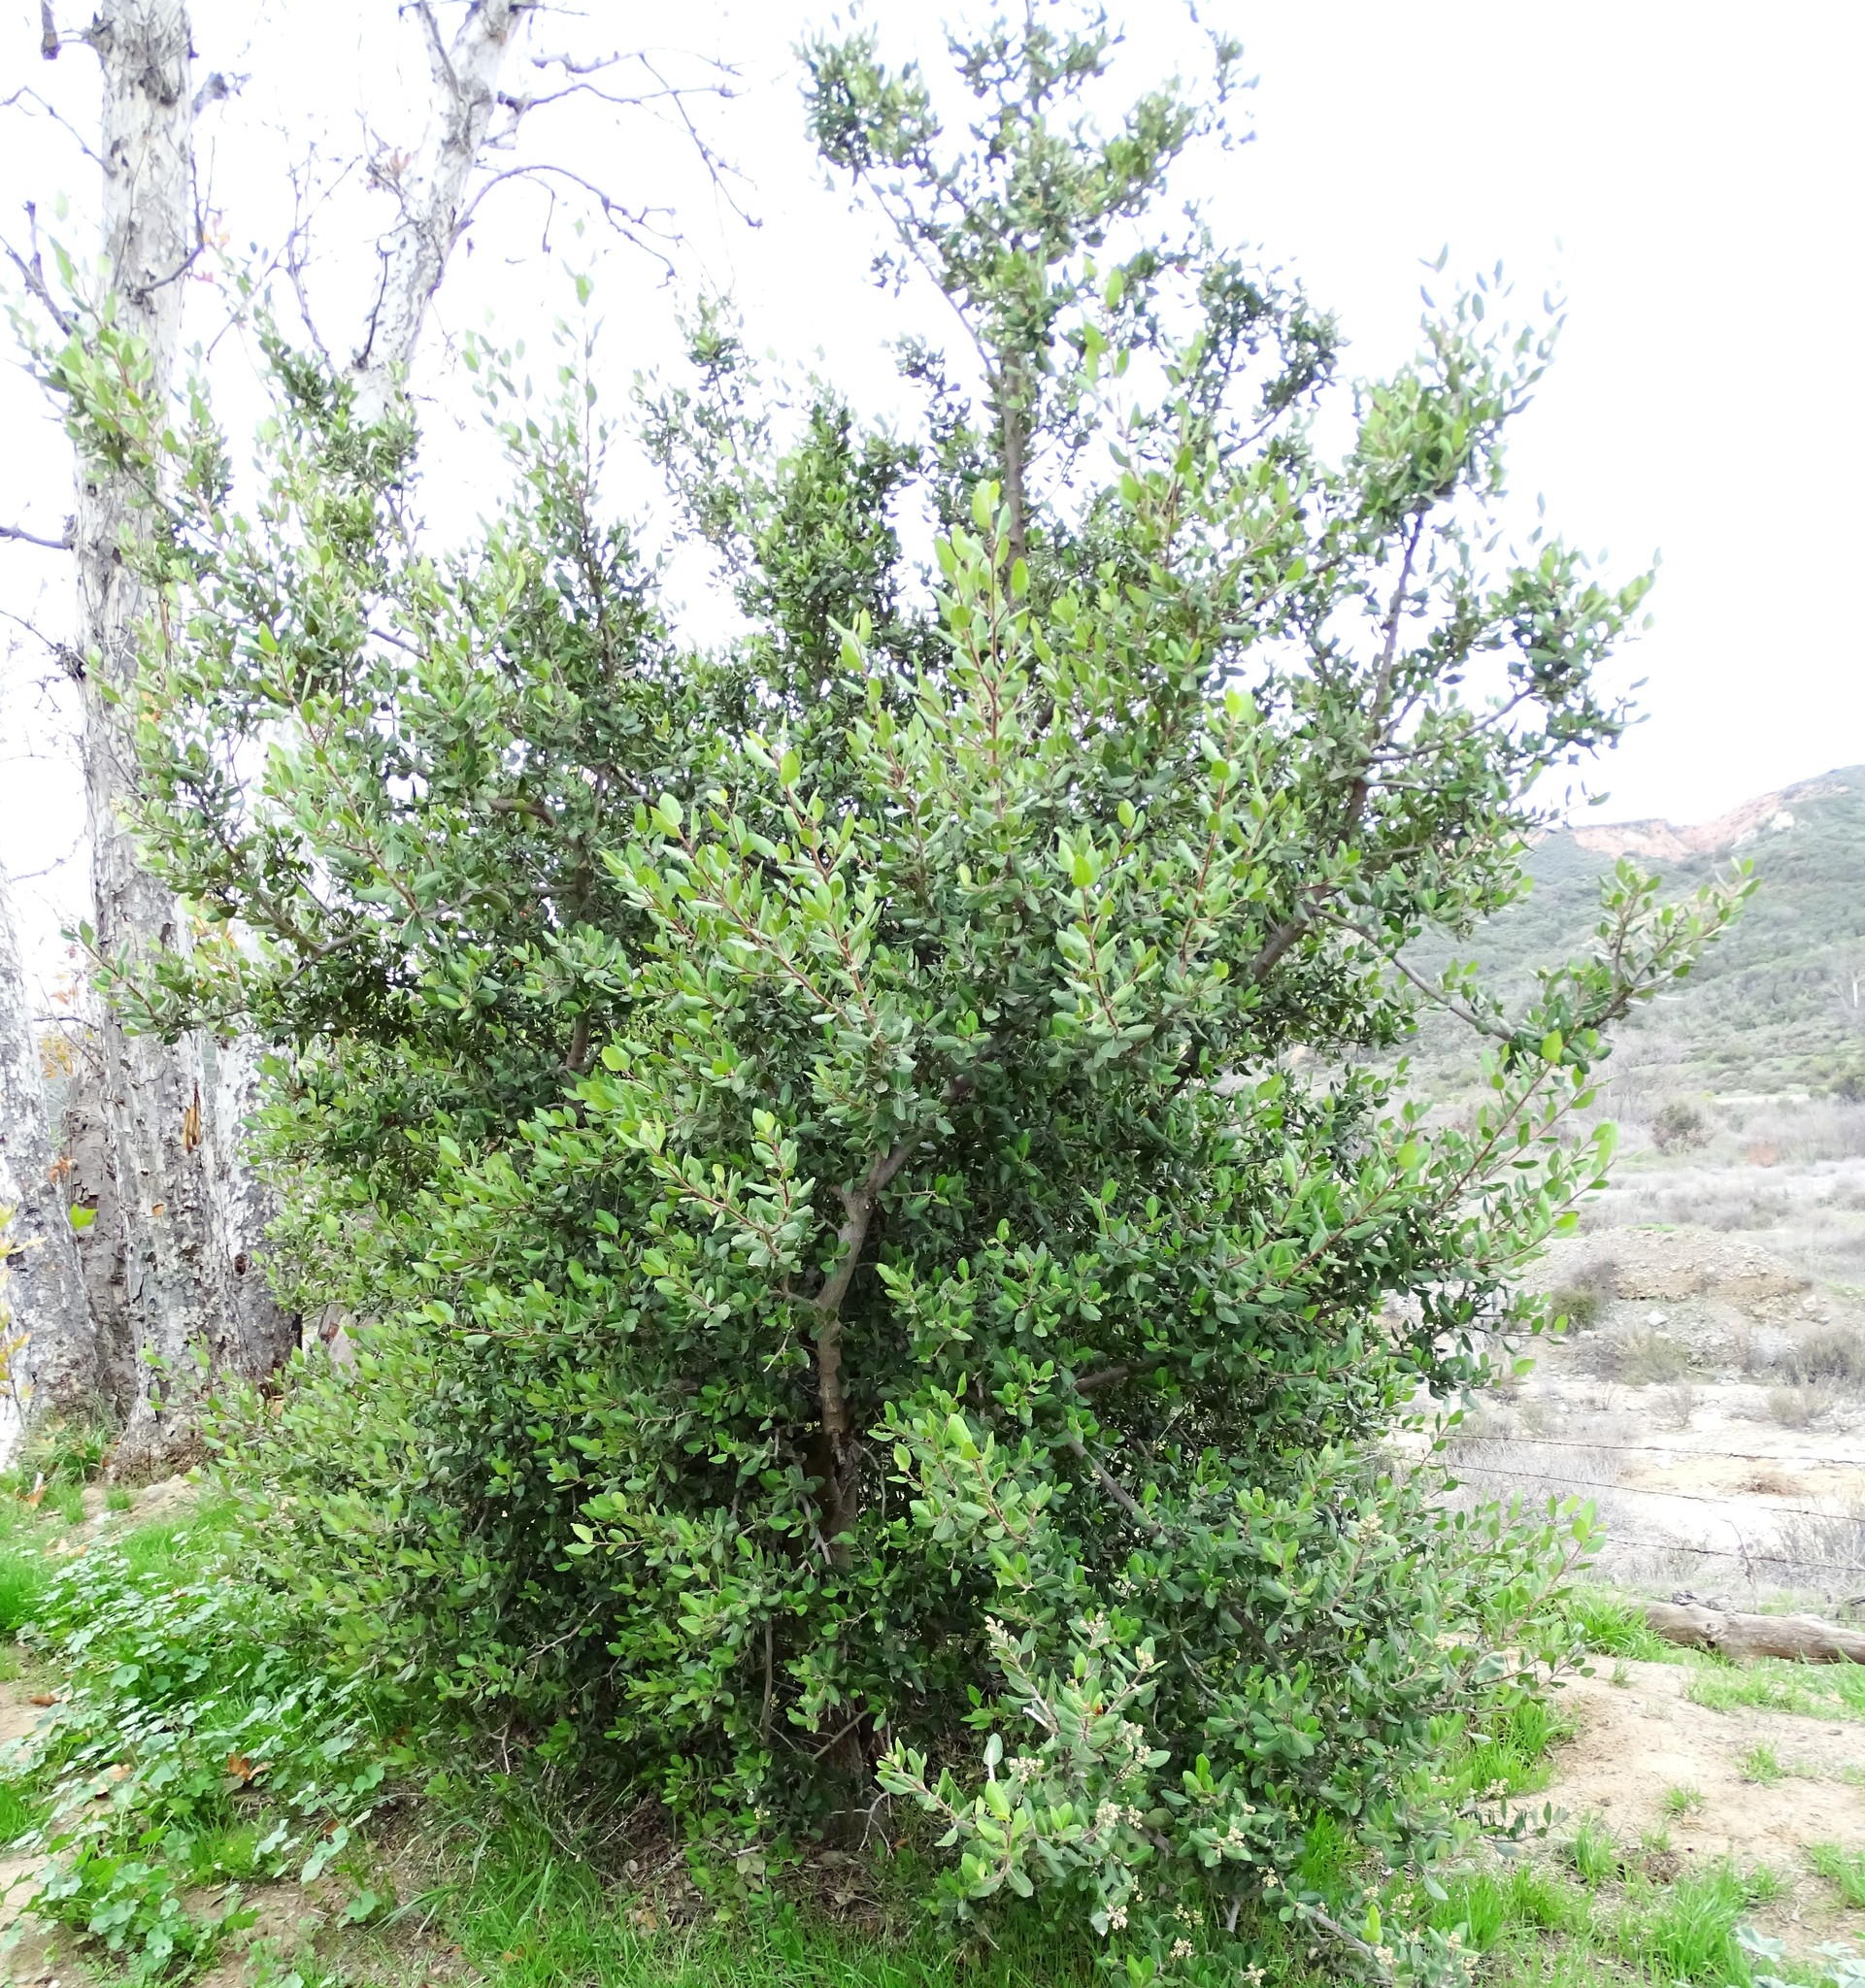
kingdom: Plantae
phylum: Tracheophyta
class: Magnoliopsida
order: Sapindales
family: Anacardiaceae
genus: Rhus
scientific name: Rhus integrifolia
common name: Lemonade sumac
